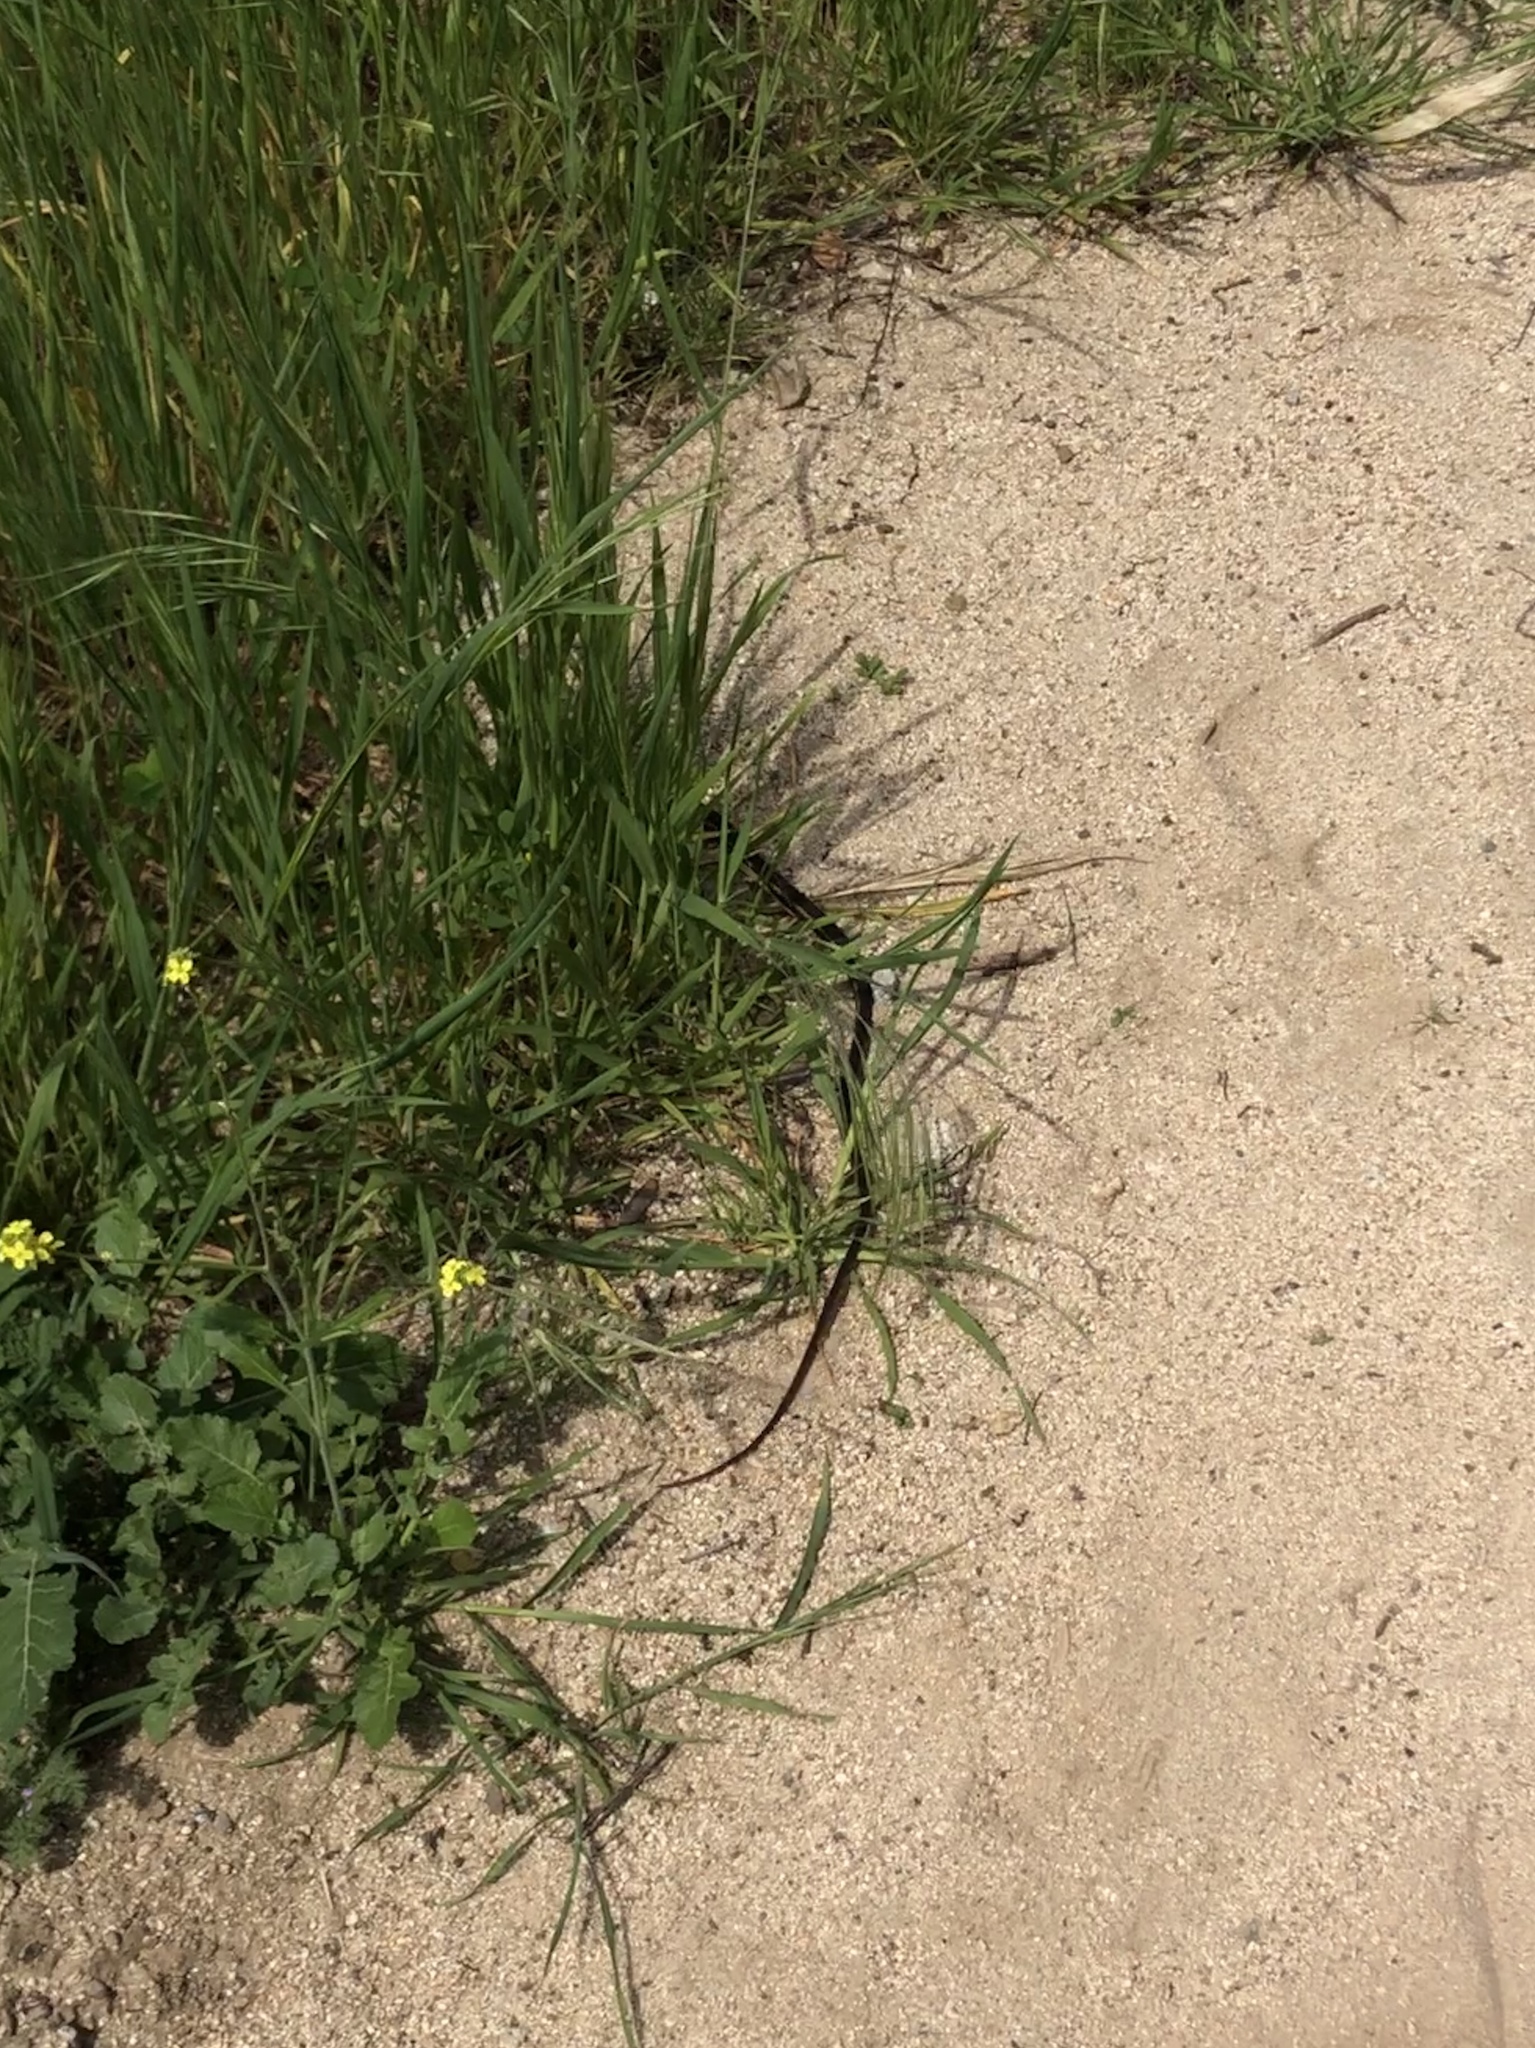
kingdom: Animalia
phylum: Chordata
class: Squamata
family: Colubridae
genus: Masticophis
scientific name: Masticophis lateralis
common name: Striped racer
